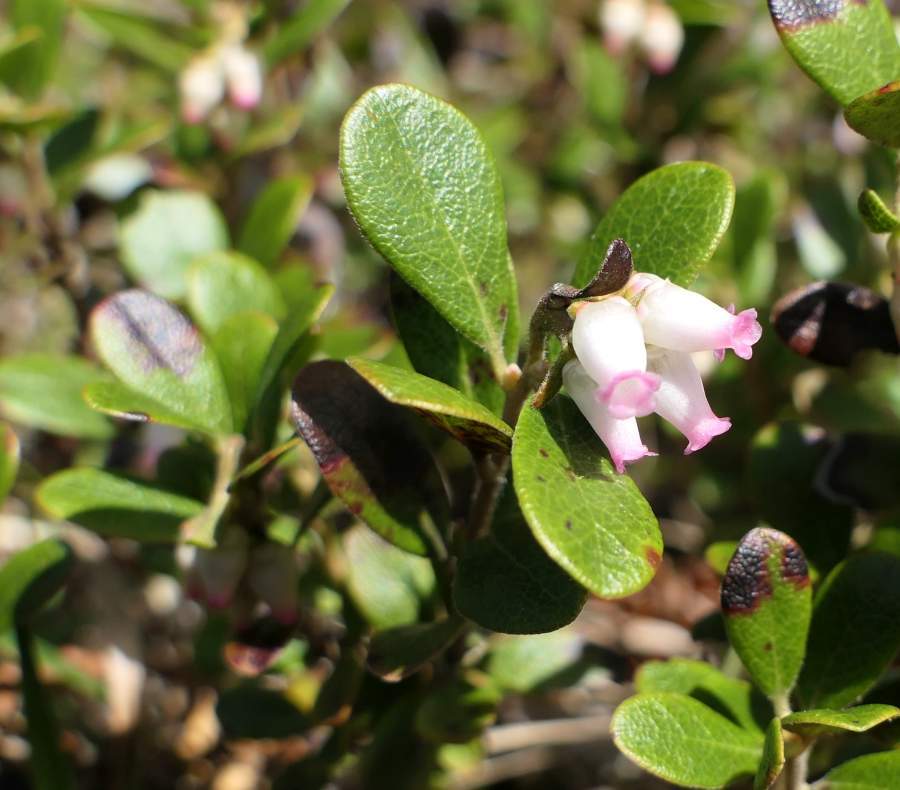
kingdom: Plantae
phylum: Tracheophyta
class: Magnoliopsida
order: Ericales
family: Ericaceae
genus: Arctostaphylos
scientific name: Arctostaphylos uva-ursi
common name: Bearberry
